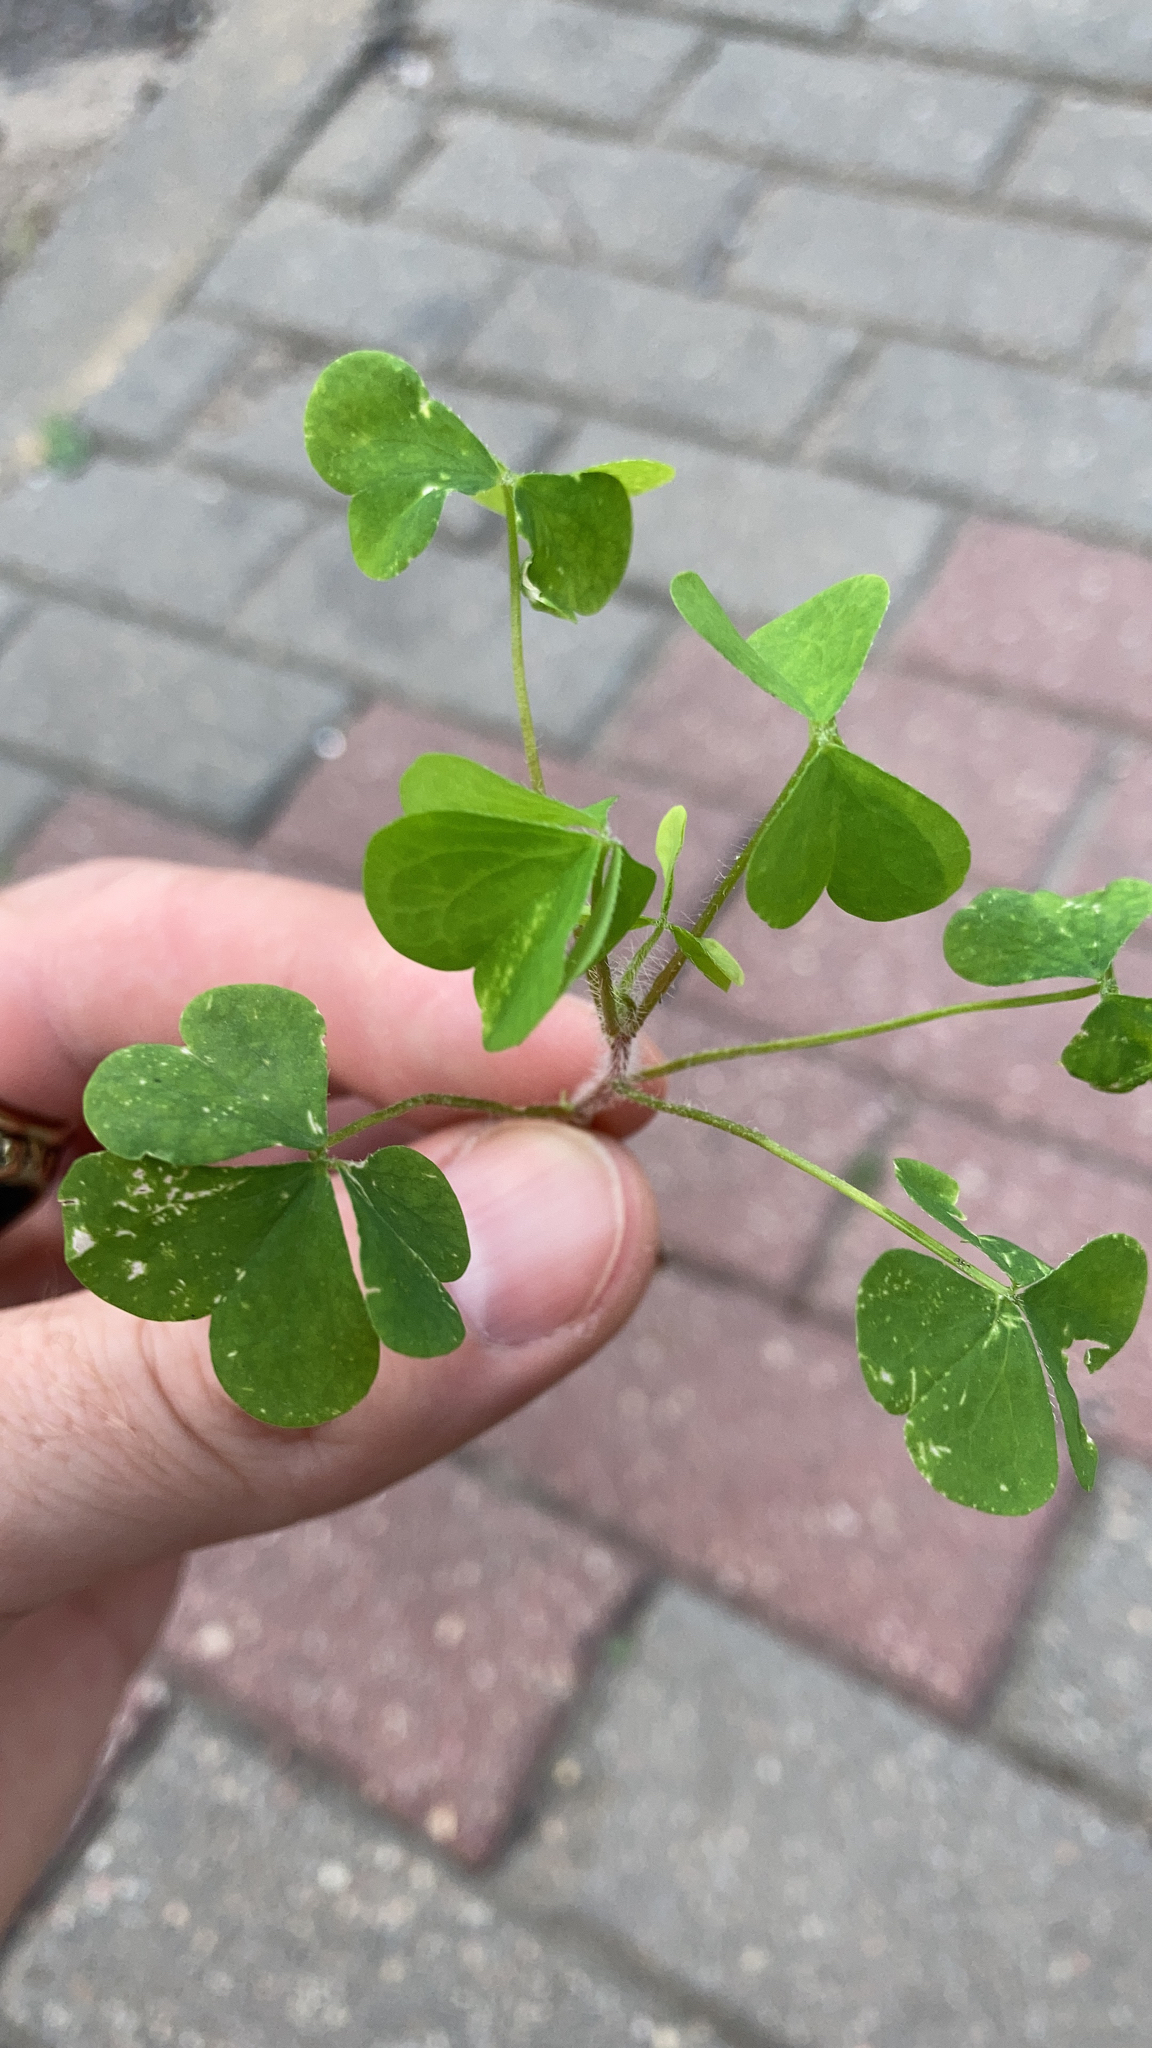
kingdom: Plantae
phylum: Tracheophyta
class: Magnoliopsida
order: Oxalidales
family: Oxalidaceae
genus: Oxalis
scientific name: Oxalis stricta
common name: Upright yellow-sorrel
